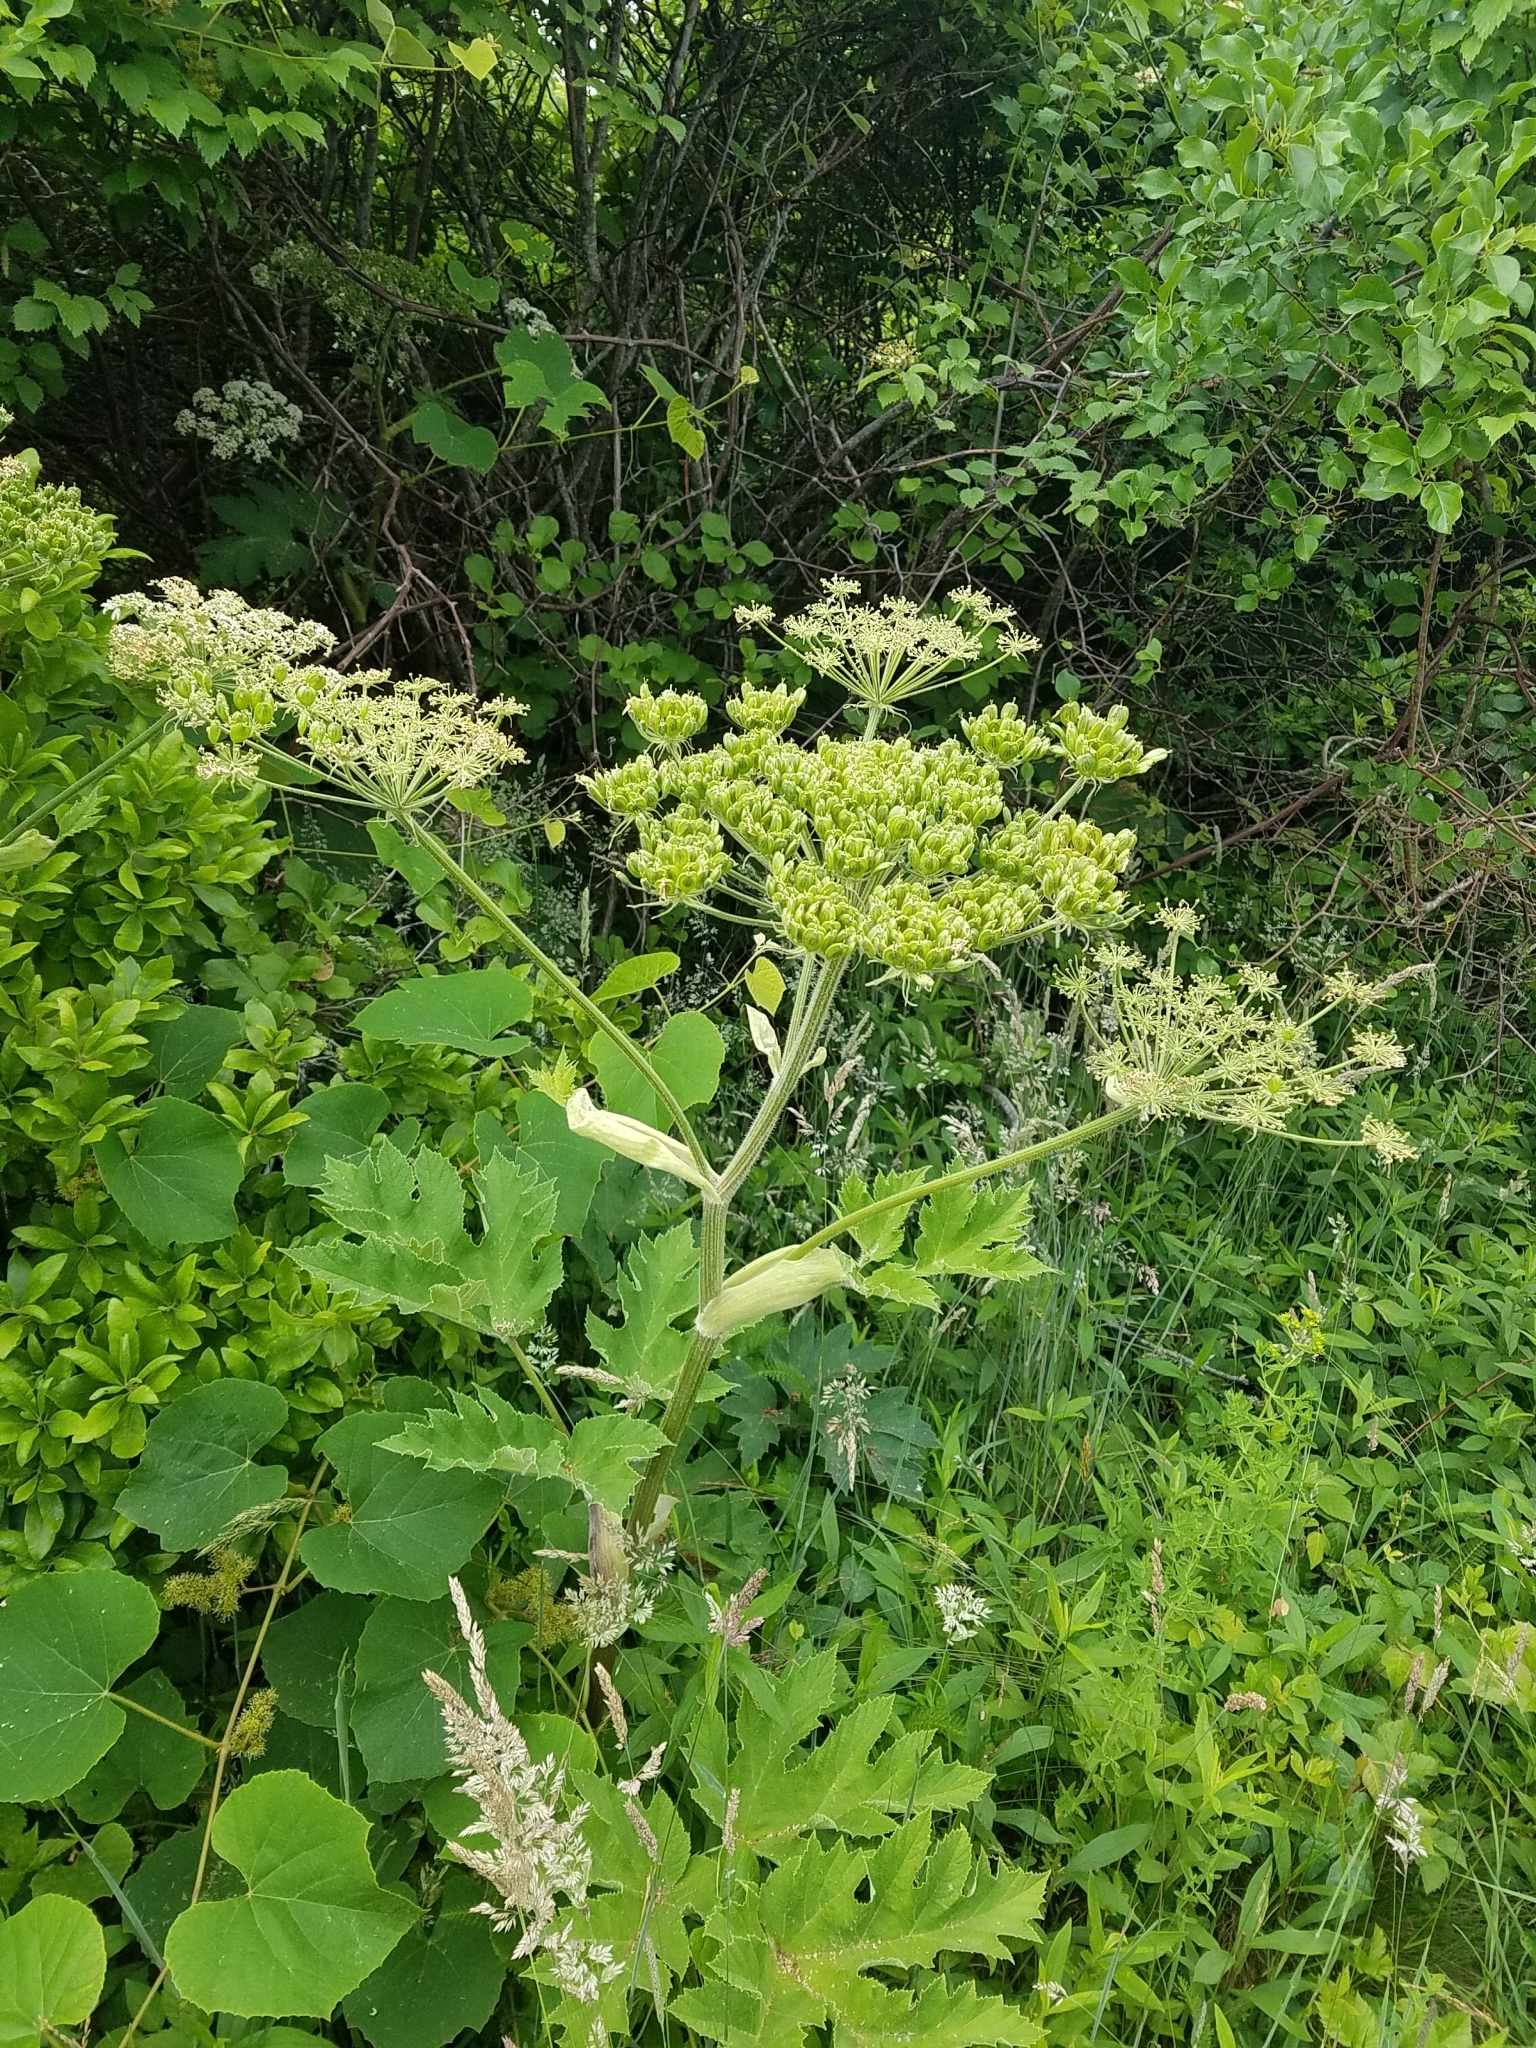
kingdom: Plantae
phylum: Tracheophyta
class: Magnoliopsida
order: Apiales
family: Apiaceae
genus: Heracleum
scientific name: Heracleum maximum
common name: American cow parsnip
